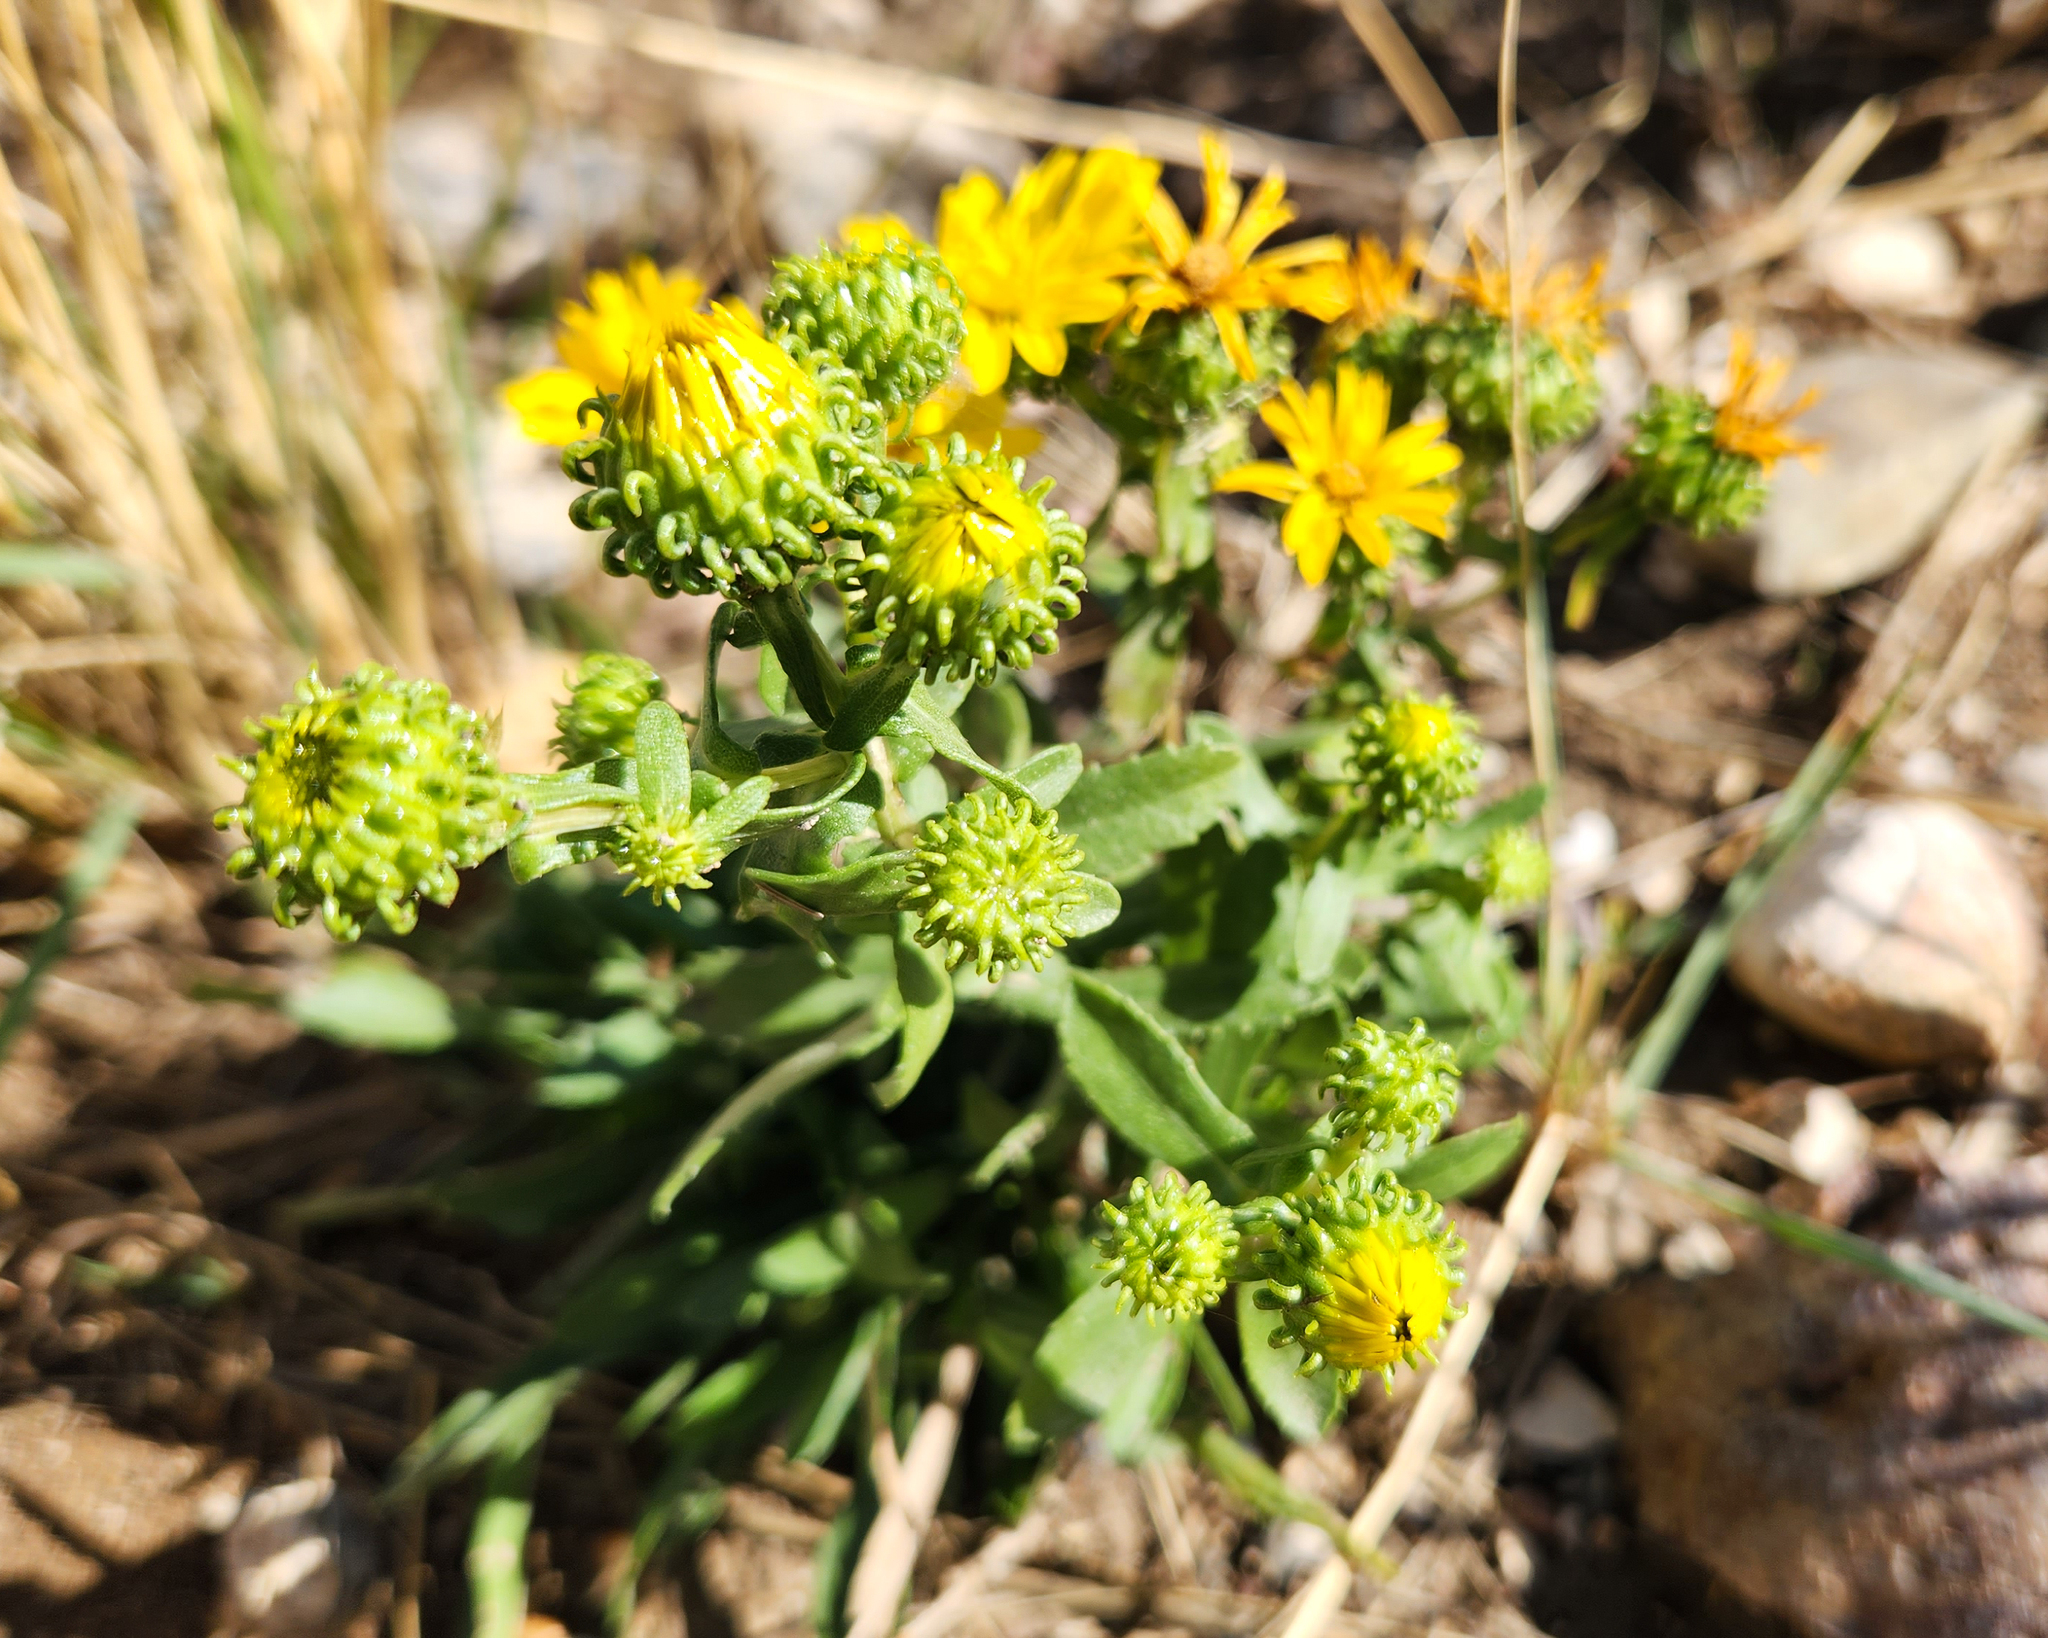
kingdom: Plantae
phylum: Tracheophyta
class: Magnoliopsida
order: Asterales
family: Asteraceae
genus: Grindelia
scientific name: Grindelia squarrosa
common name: Curly-cup gumweed
